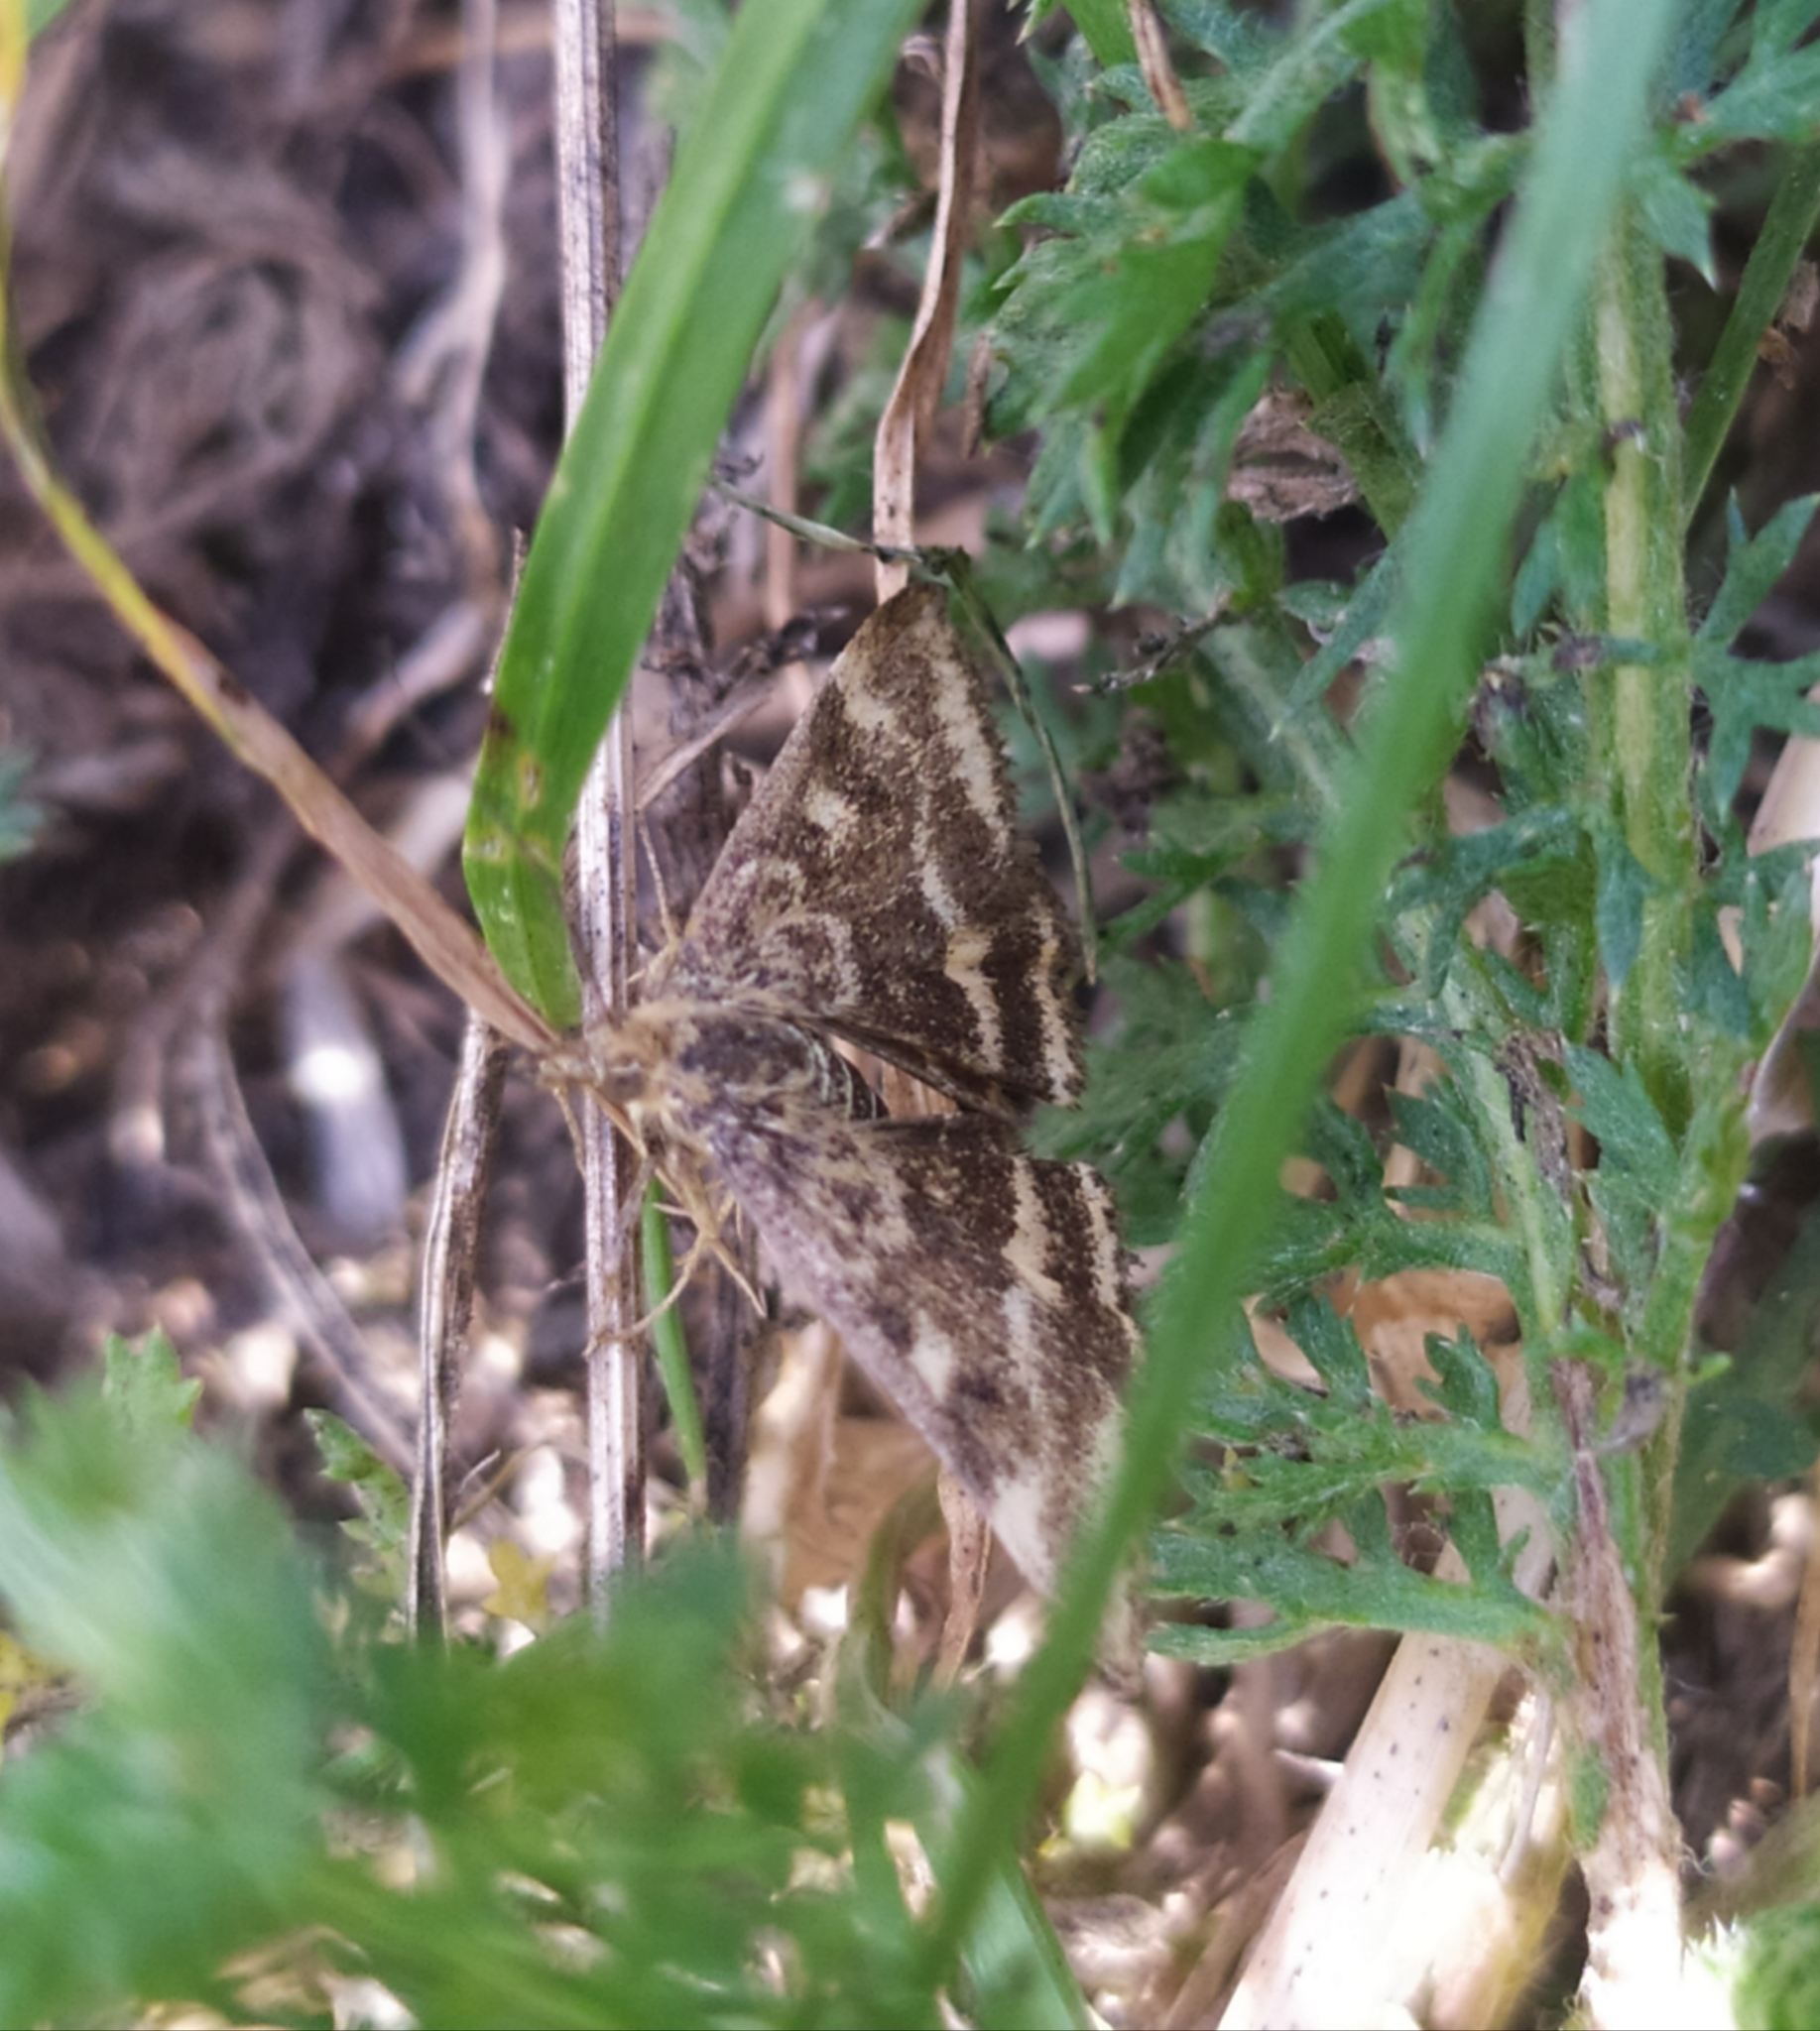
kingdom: Animalia
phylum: Arthropoda
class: Insecta
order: Lepidoptera
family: Crambidae
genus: Pyrausta
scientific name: Pyrausta despicata
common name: Straw-barred pearl
